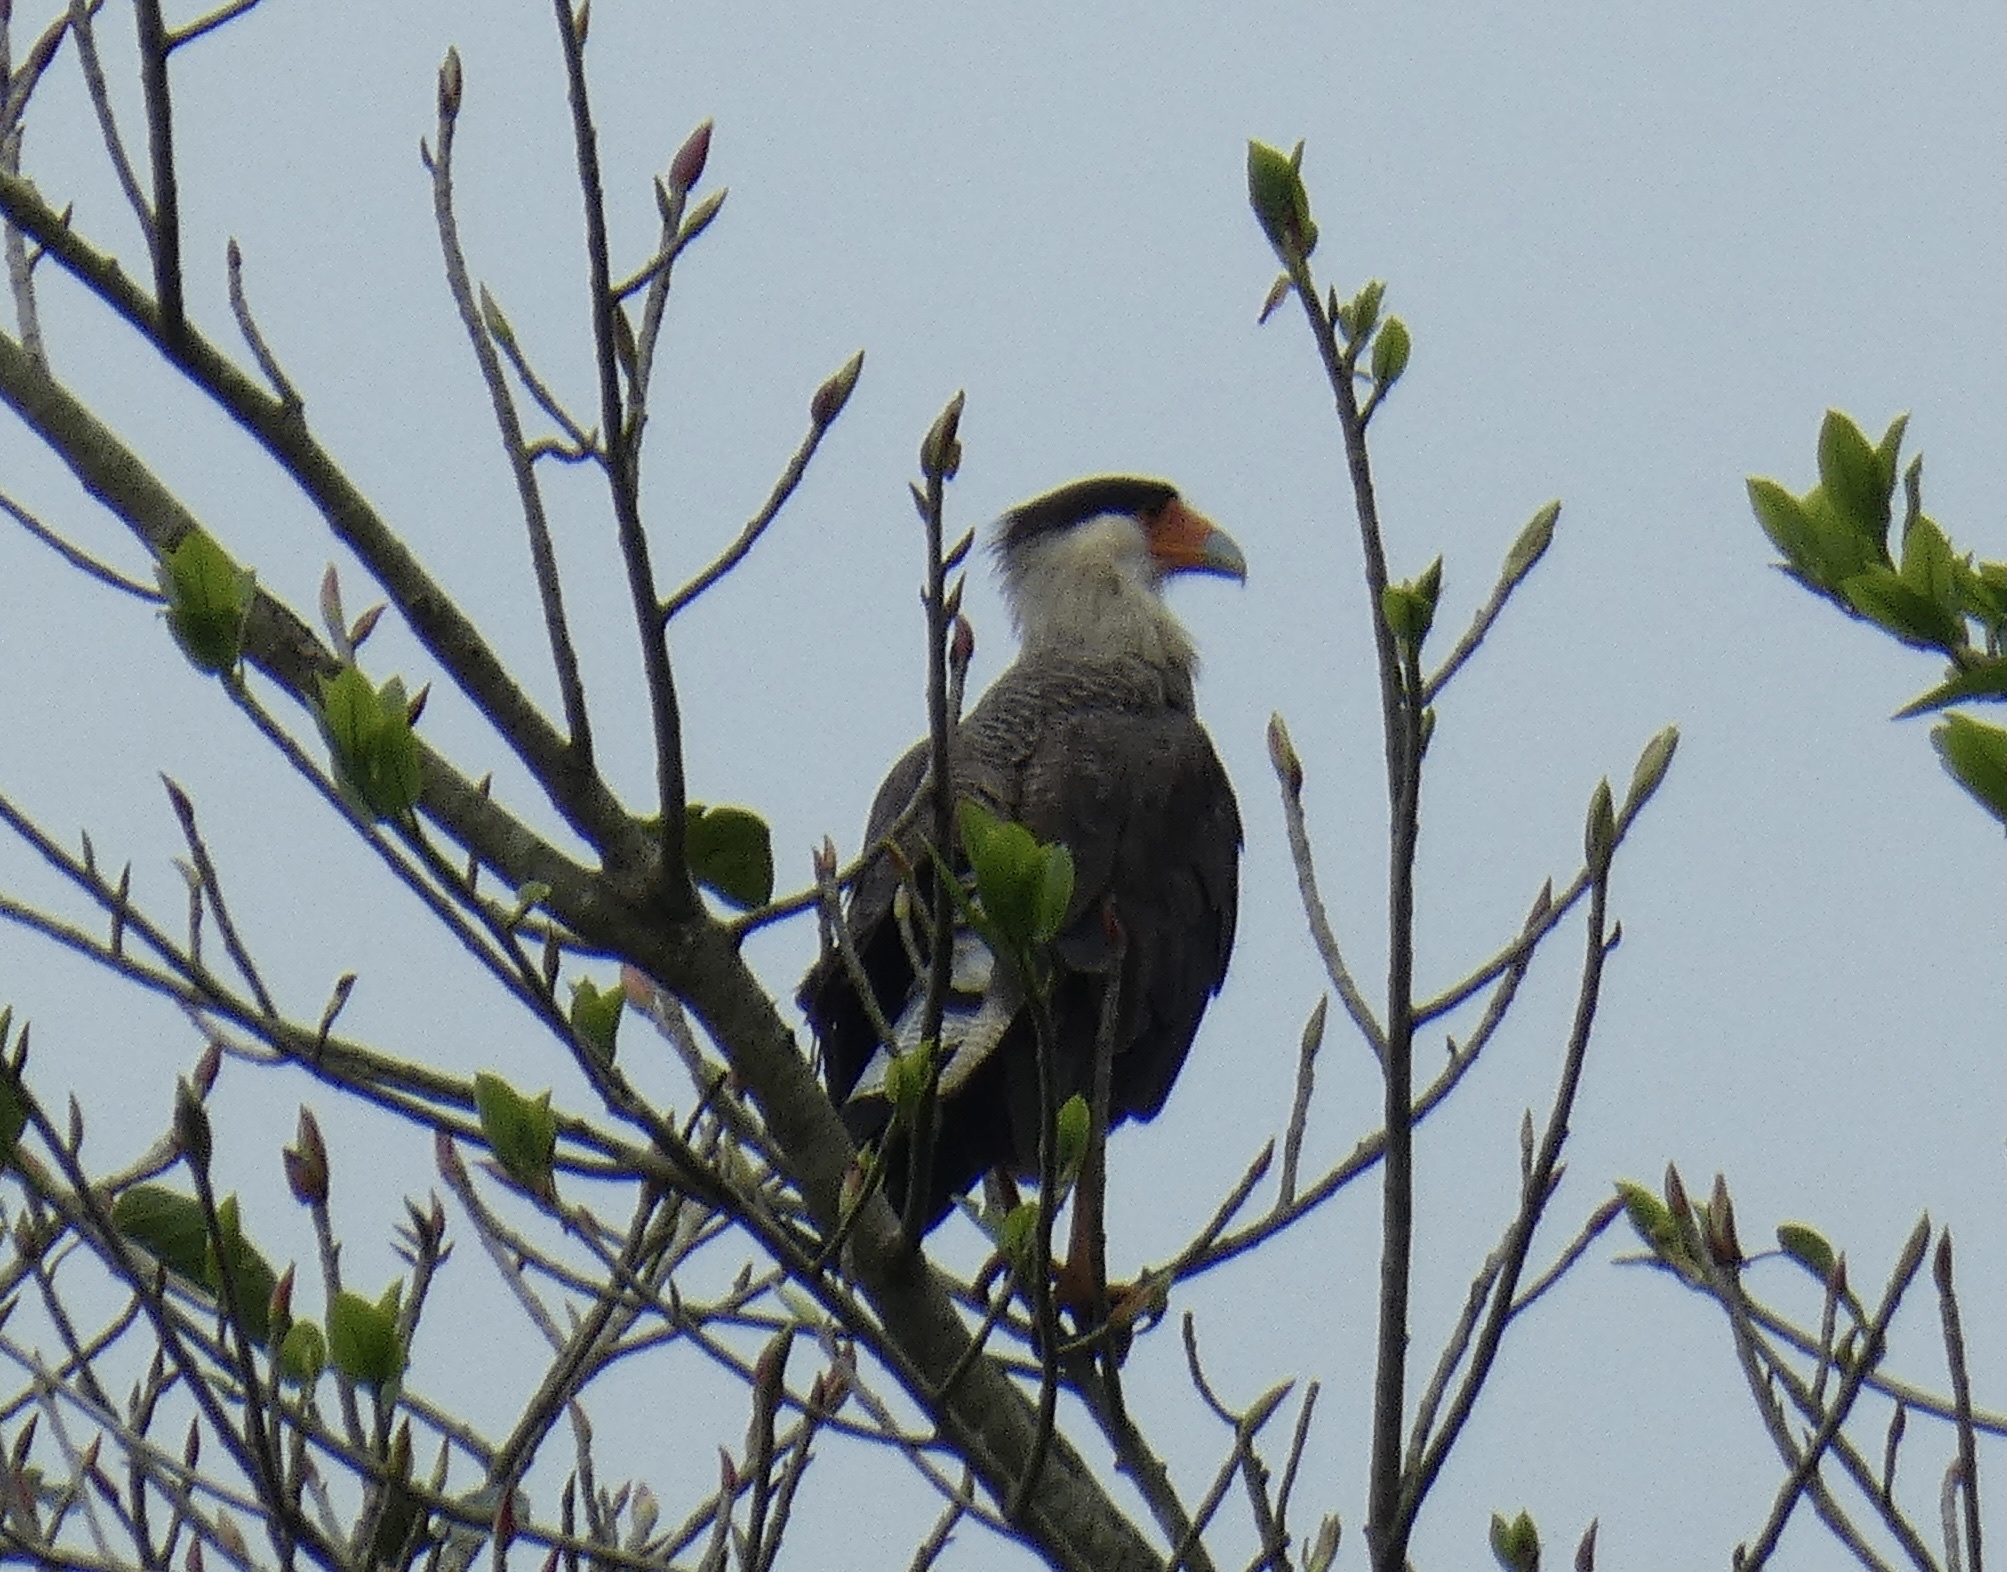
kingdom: Animalia
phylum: Chordata
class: Aves
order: Falconiformes
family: Falconidae
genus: Caracara
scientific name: Caracara plancus
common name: Southern caracara
